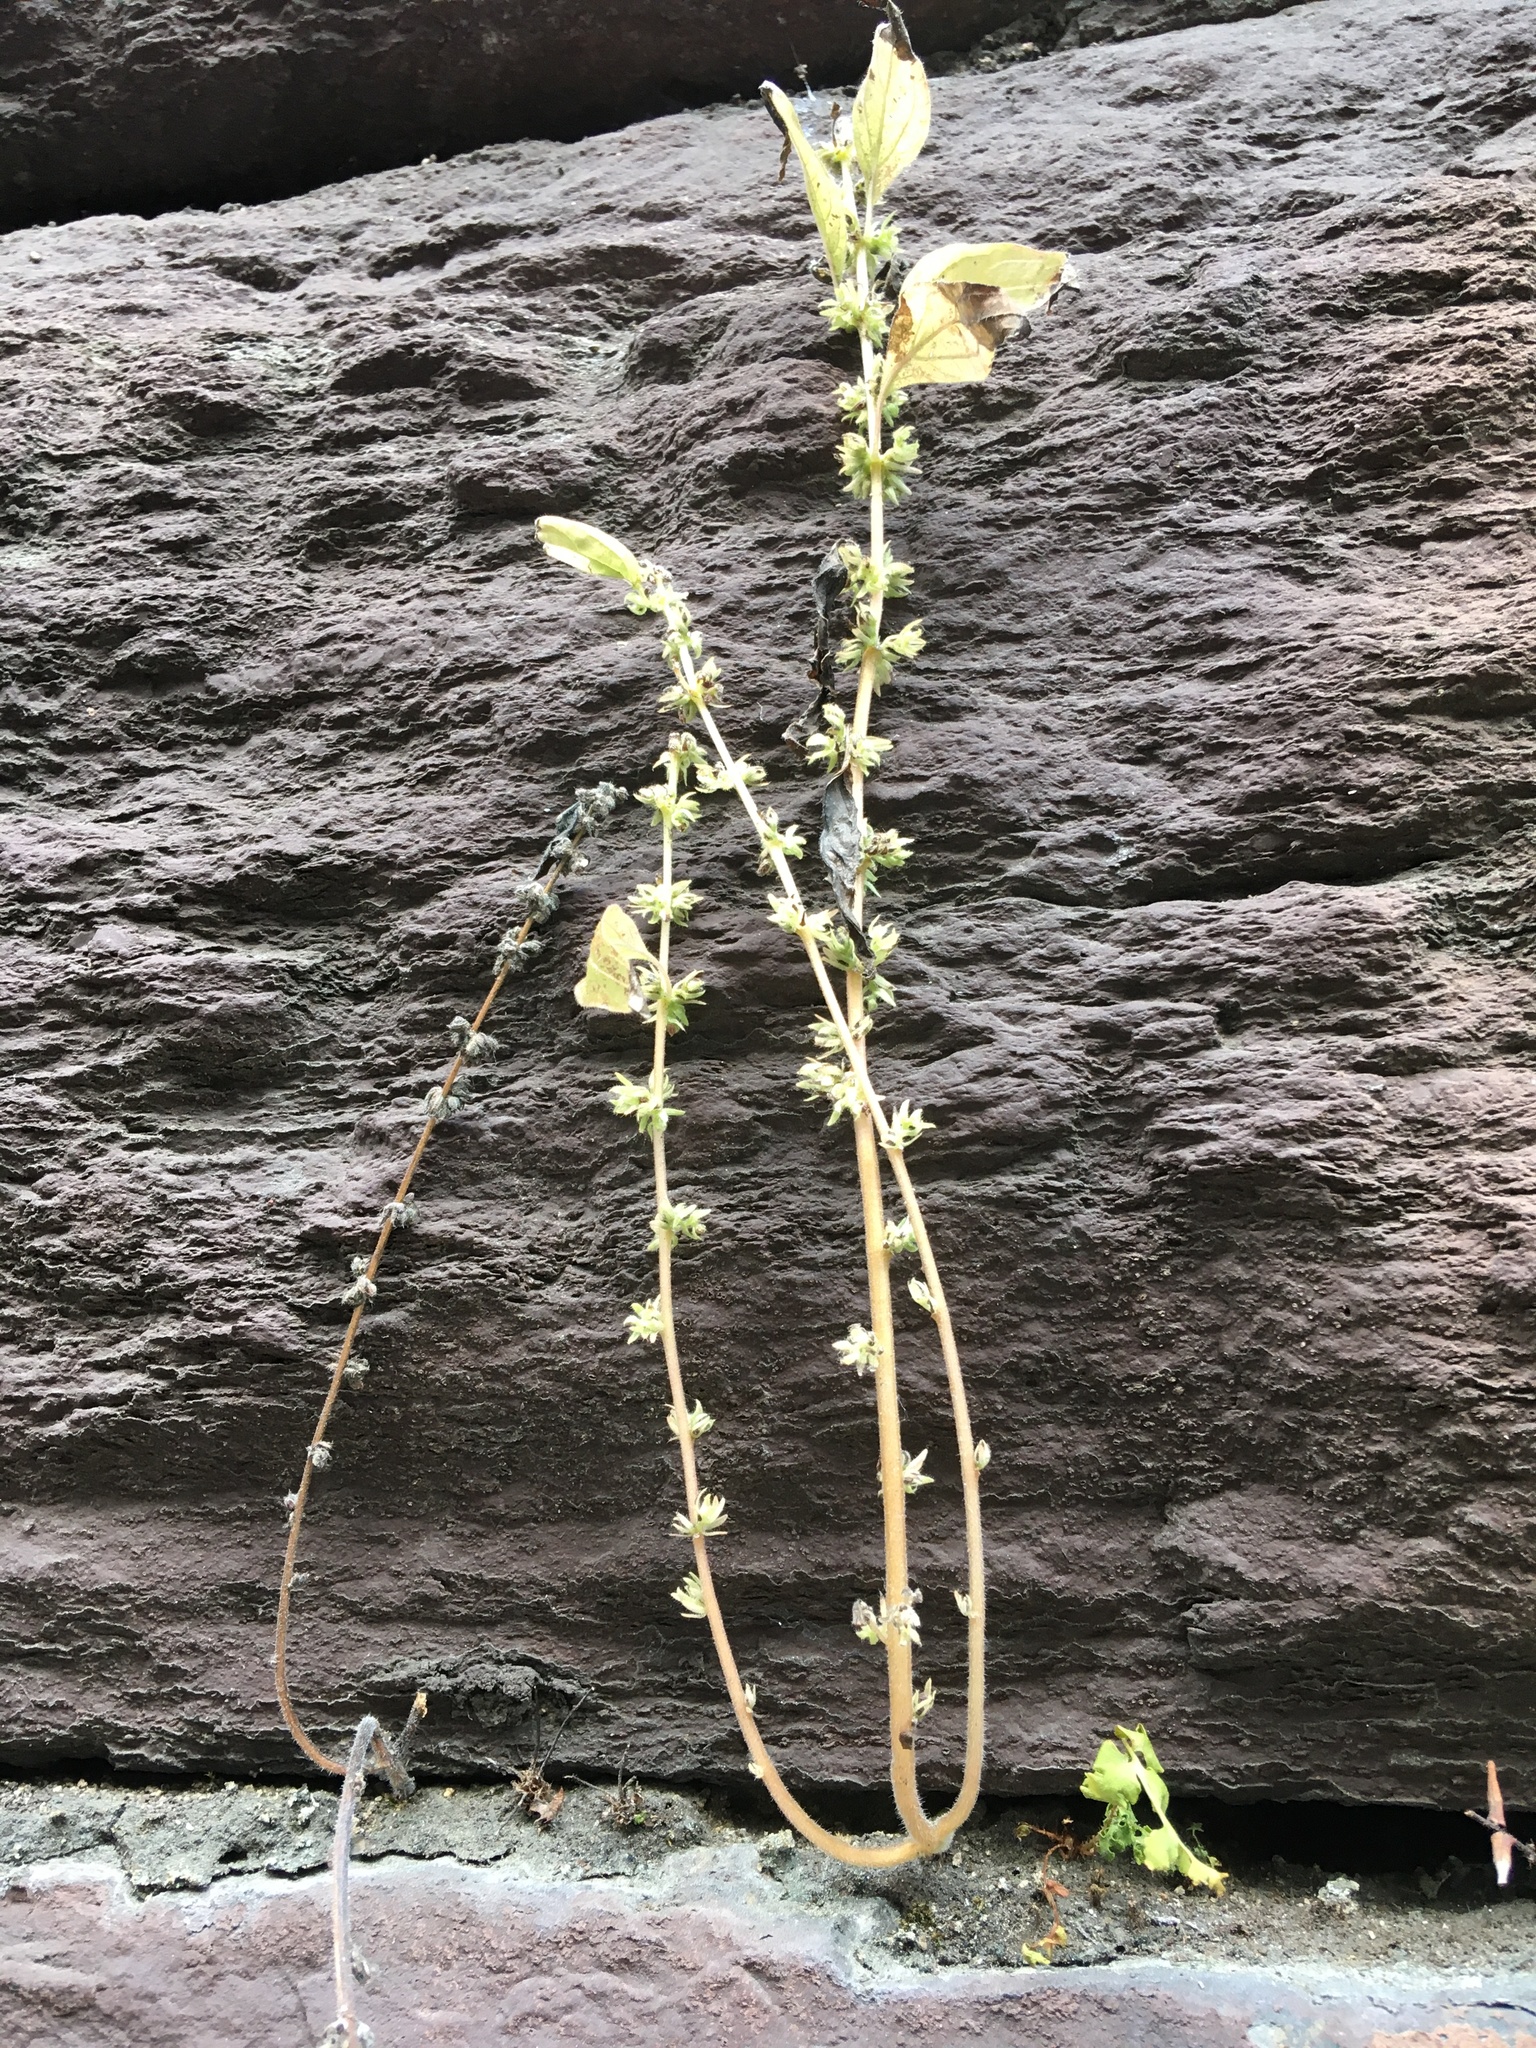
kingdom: Plantae
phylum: Tracheophyta
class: Magnoliopsida
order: Rosales
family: Urticaceae
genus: Parietaria
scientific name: Parietaria pensylvanica
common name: Pennsylvania pellitory
